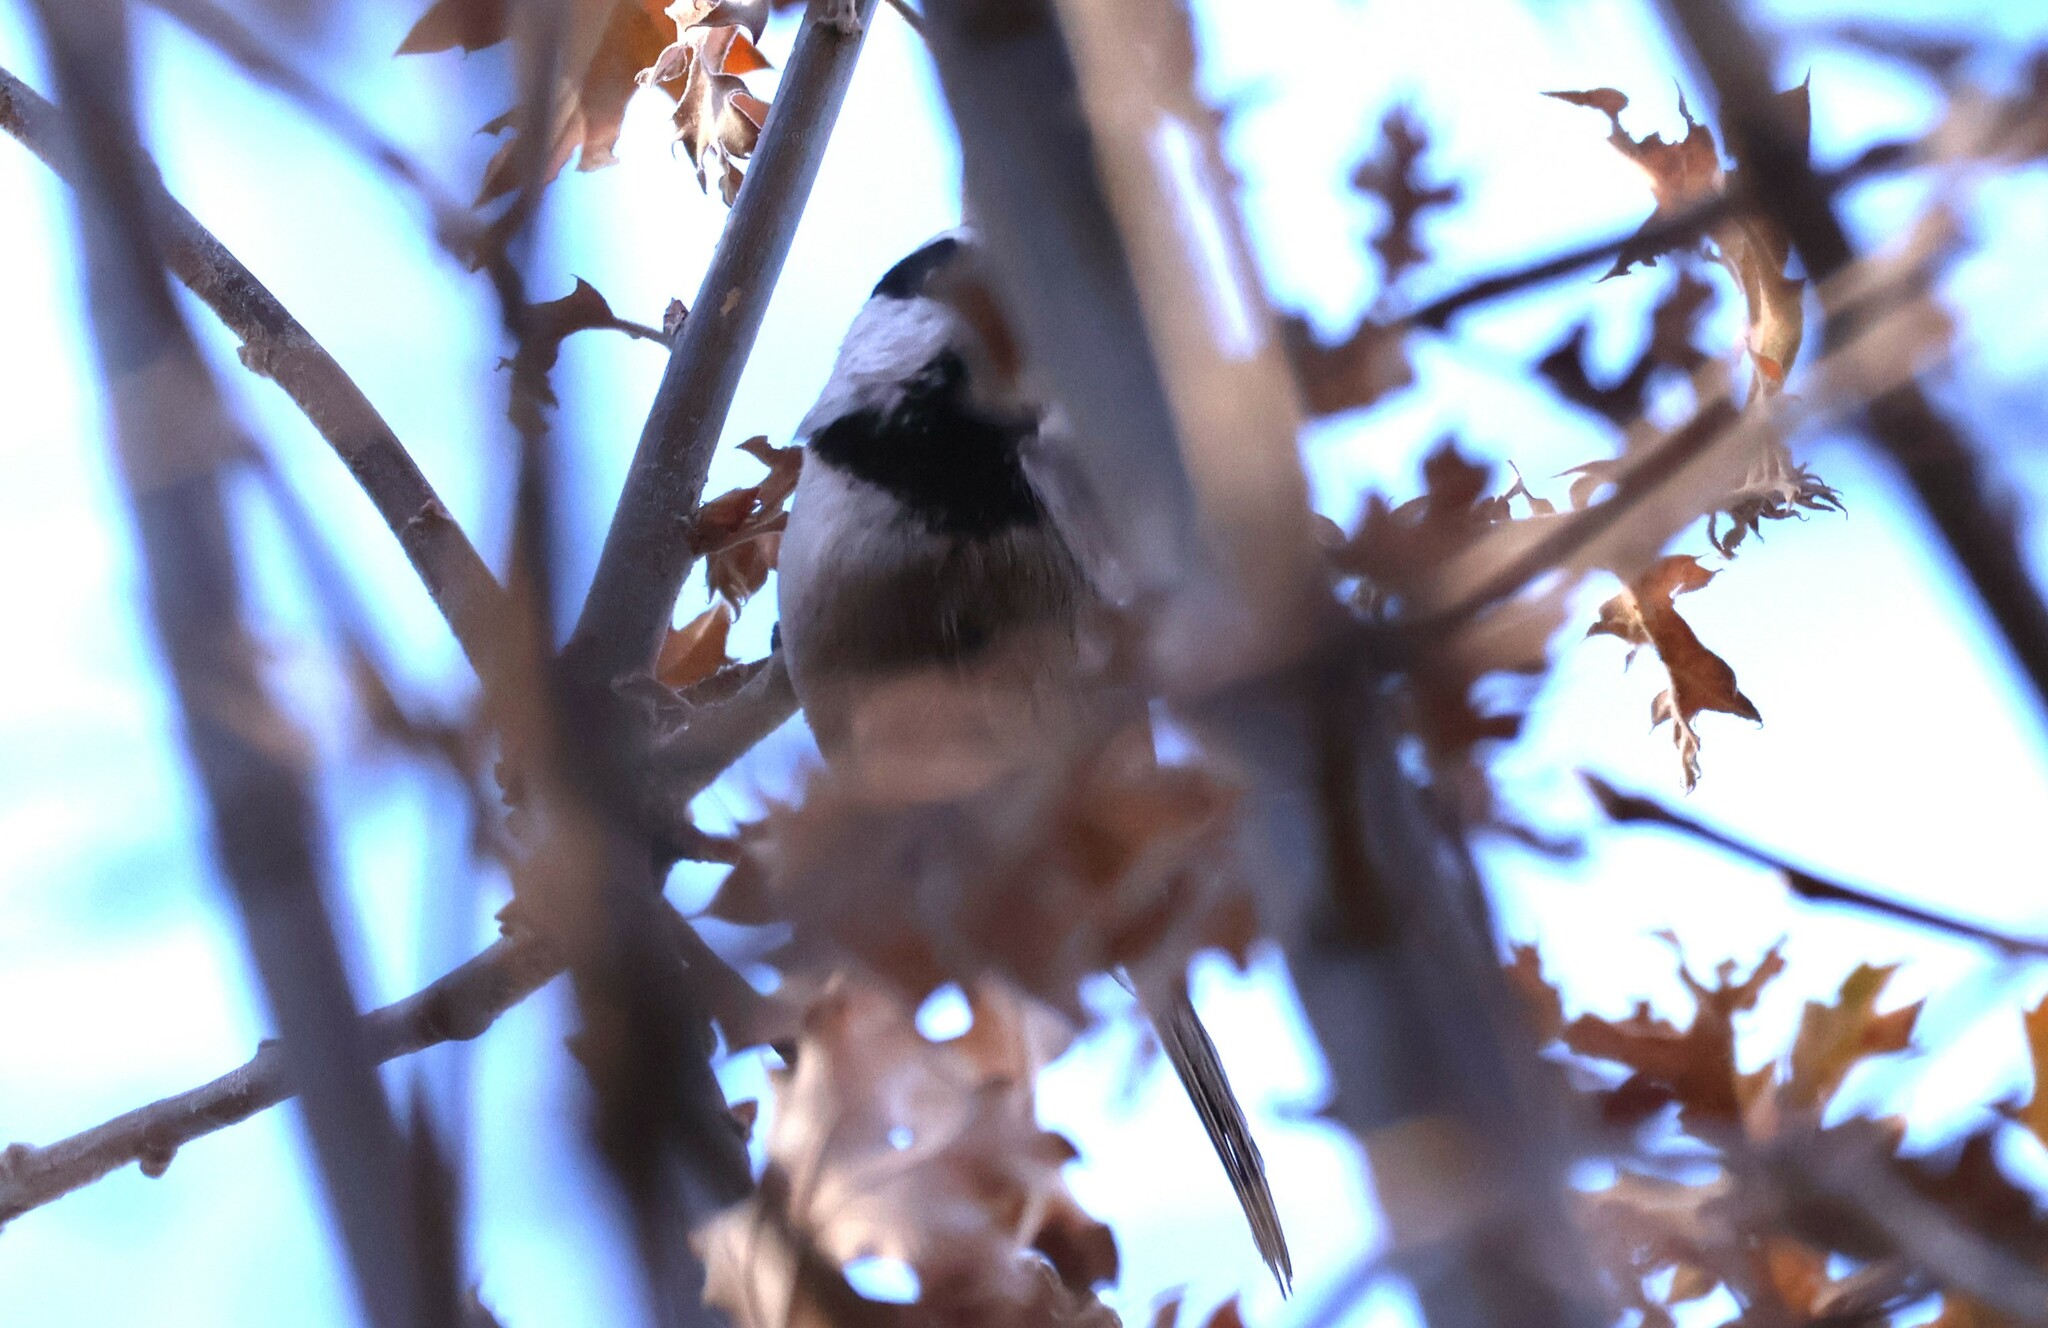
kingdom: Animalia
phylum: Chordata
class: Aves
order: Passeriformes
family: Paridae
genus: Poecile
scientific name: Poecile gambeli
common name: Mountain chickadee
